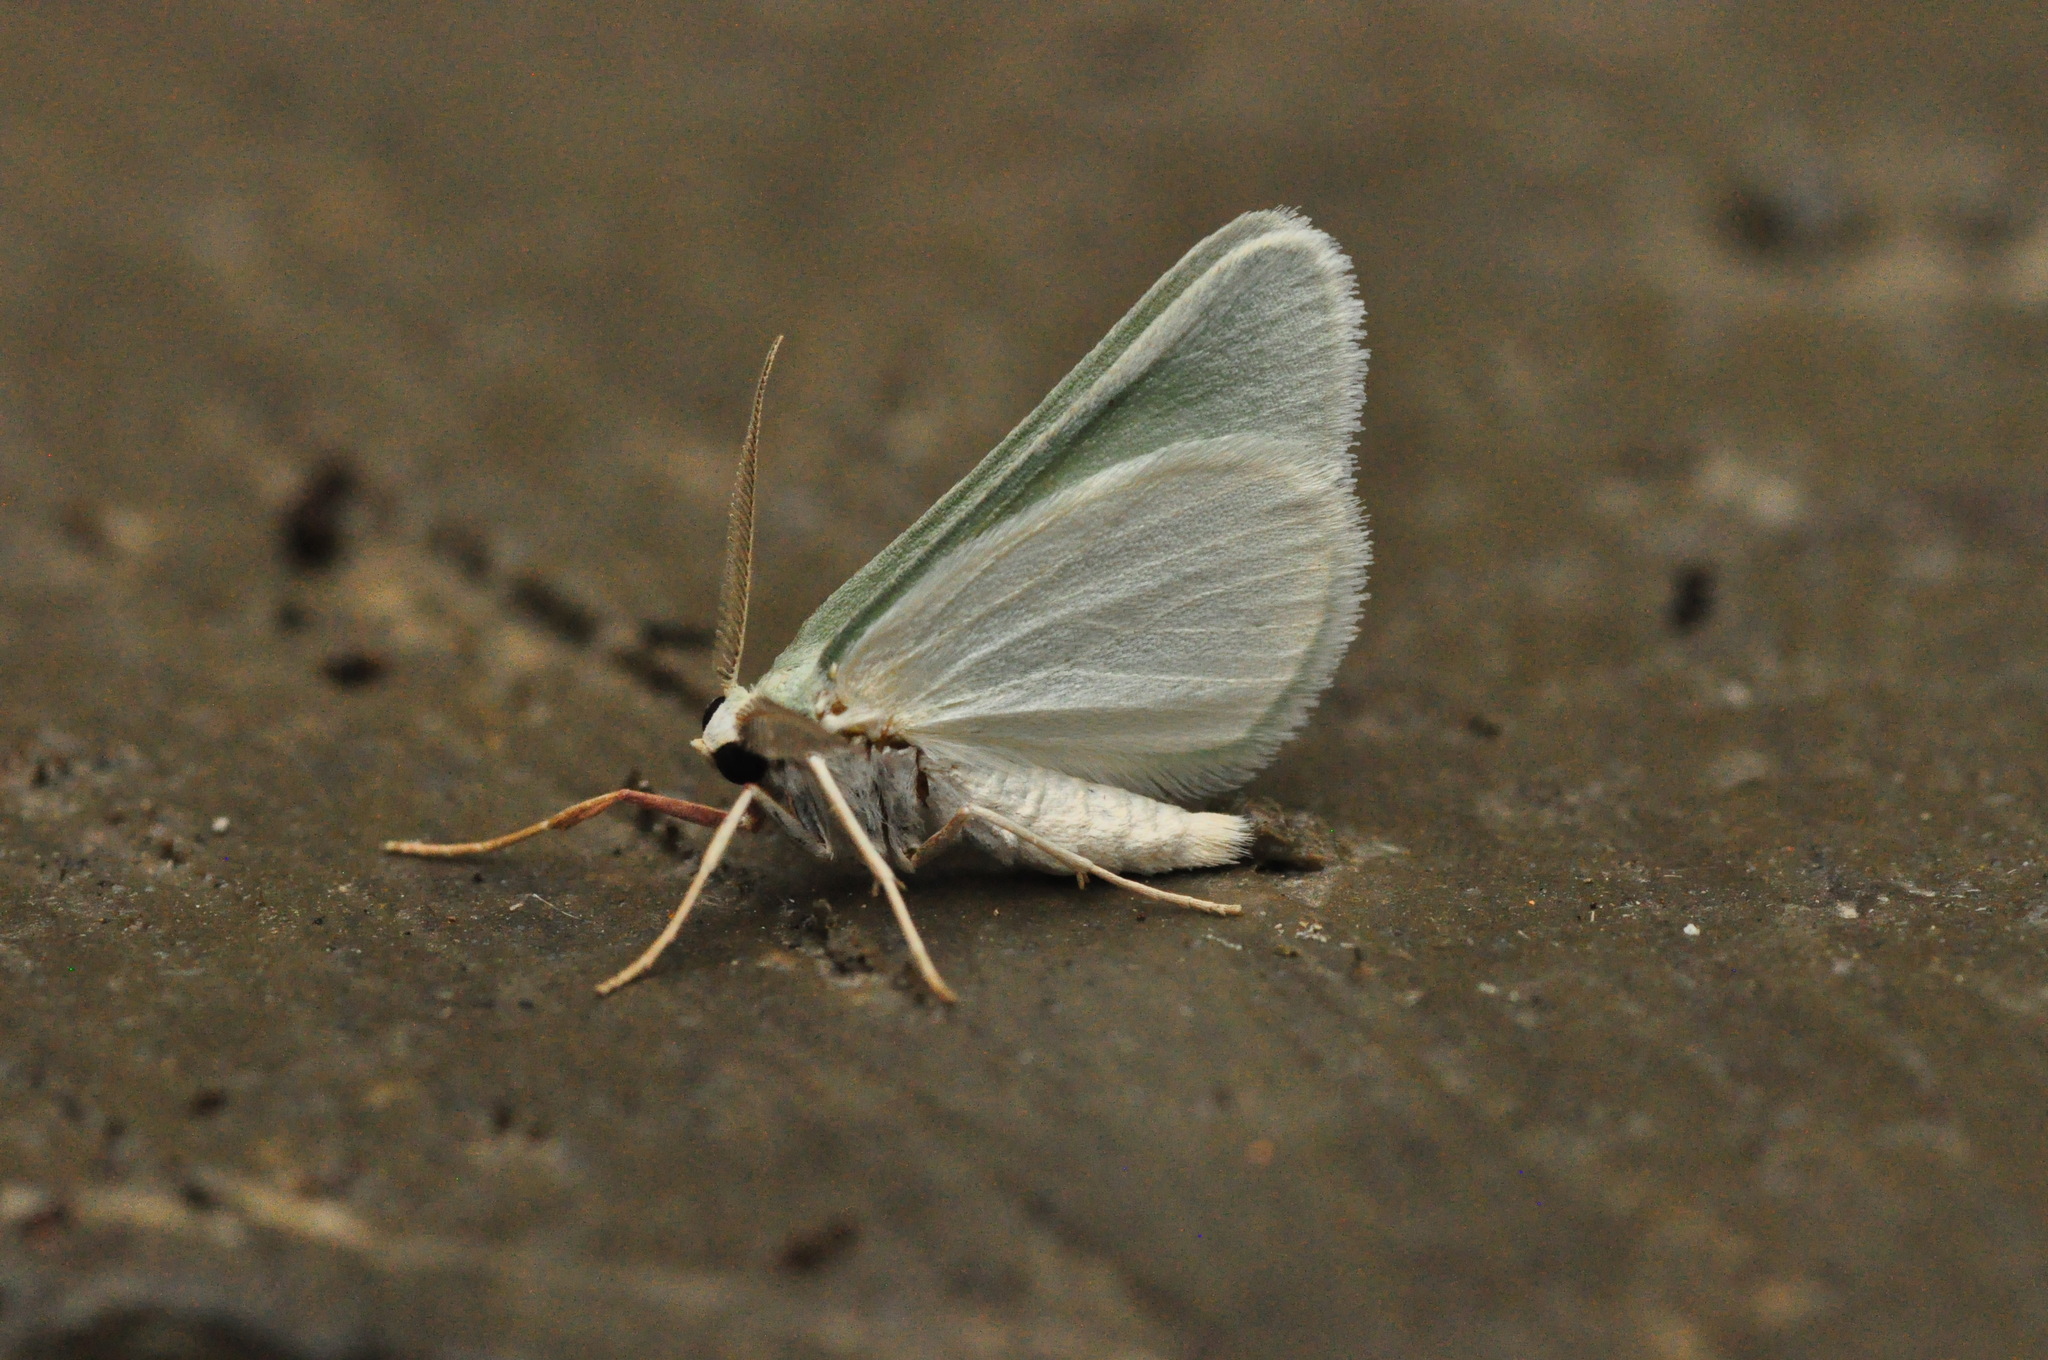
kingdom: Animalia
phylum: Arthropoda
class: Insecta
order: Lepidoptera
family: Geometridae
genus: Microloxia
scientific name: Microloxia simonyi
